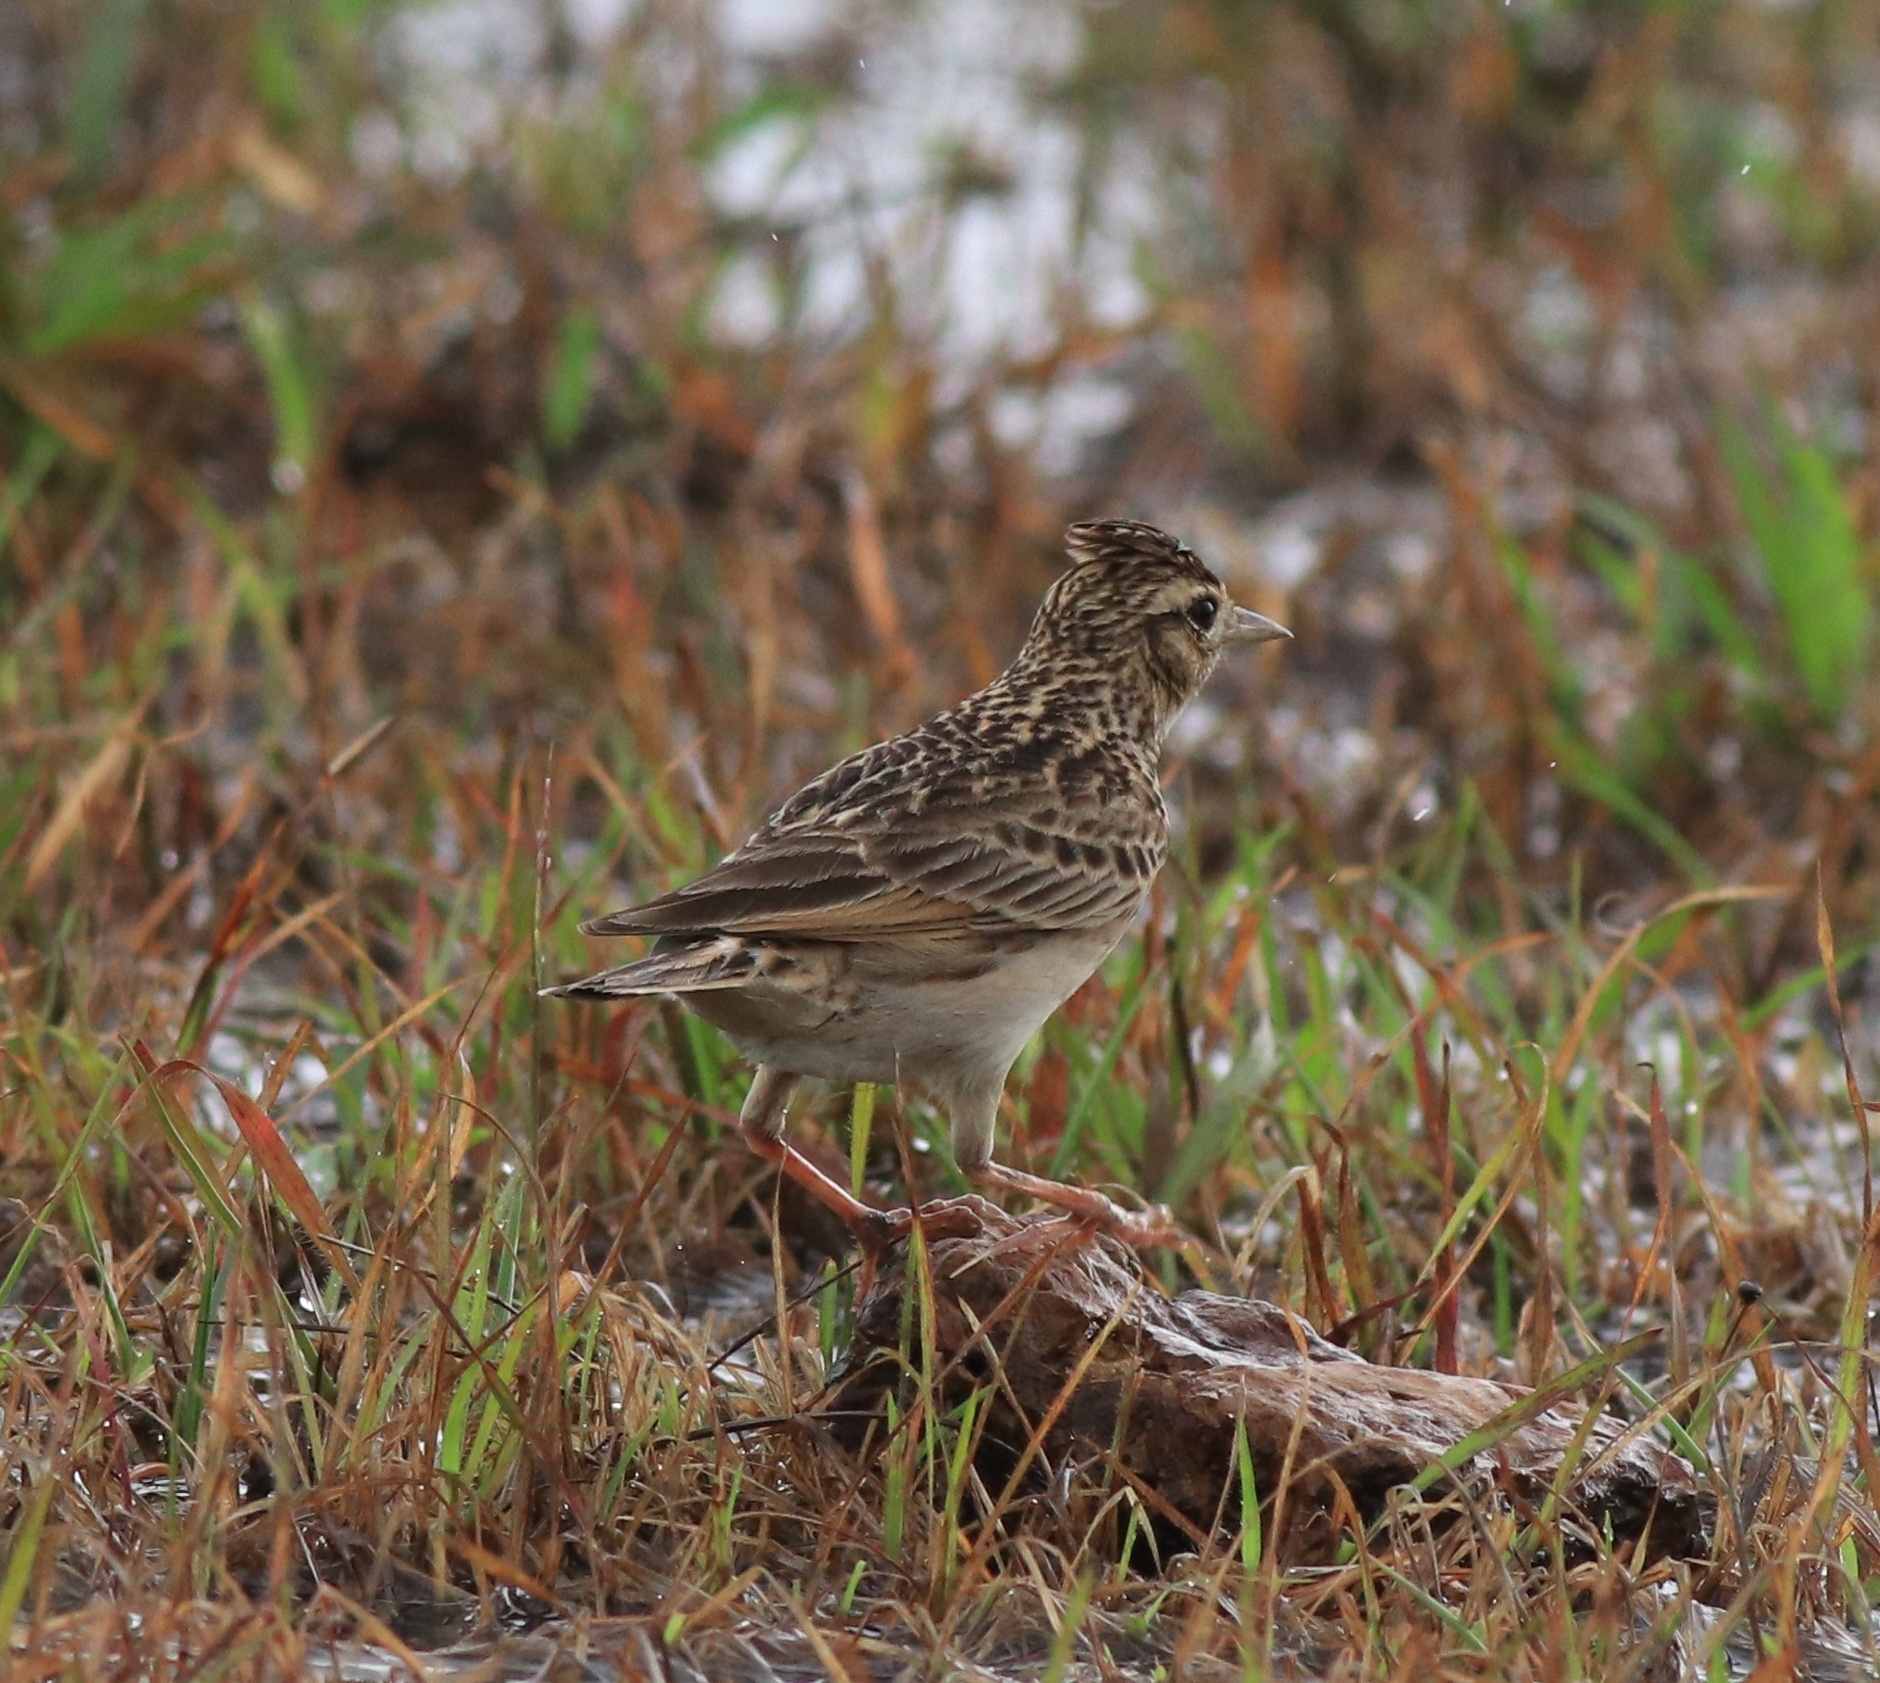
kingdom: Animalia
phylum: Chordata
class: Aves
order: Passeriformes
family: Alaudidae
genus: Alauda
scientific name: Alauda gulgula
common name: Oriental skylark
